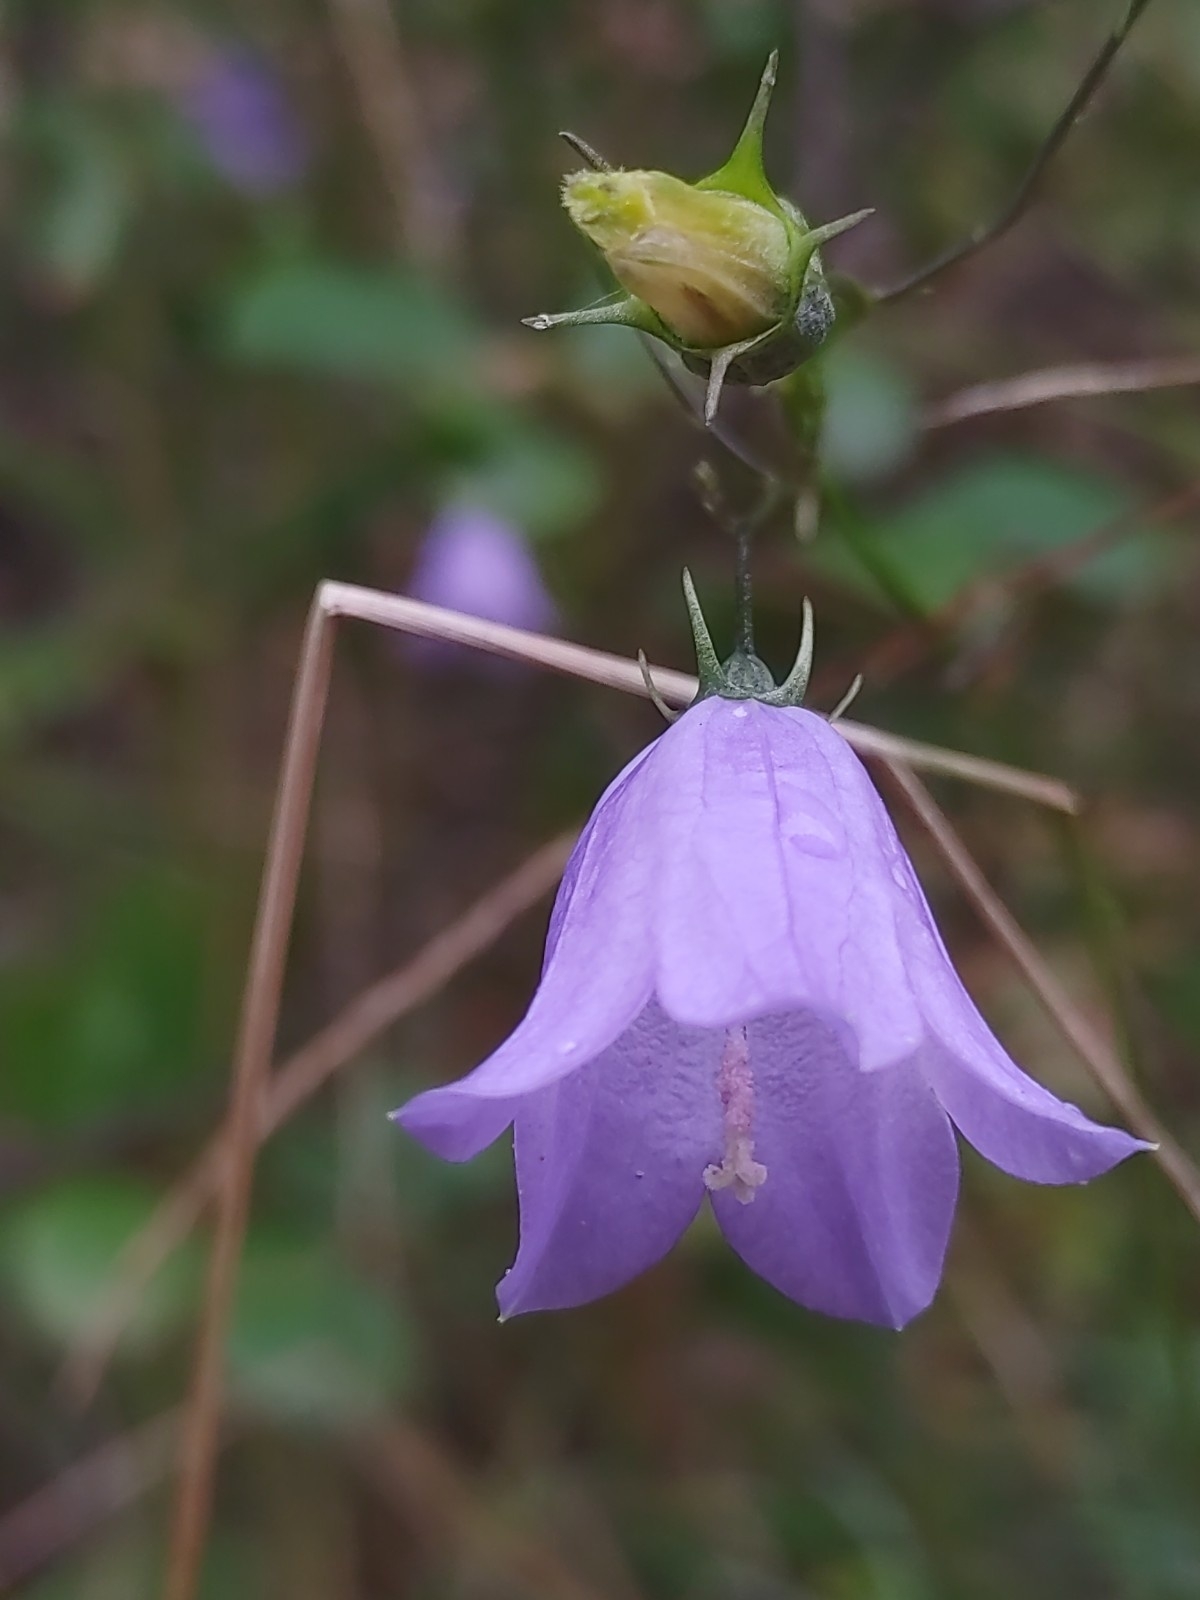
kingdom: Plantae
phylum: Tracheophyta
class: Magnoliopsida
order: Asterales
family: Campanulaceae
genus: Campanula
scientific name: Campanula rotundifolia
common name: Harebell
